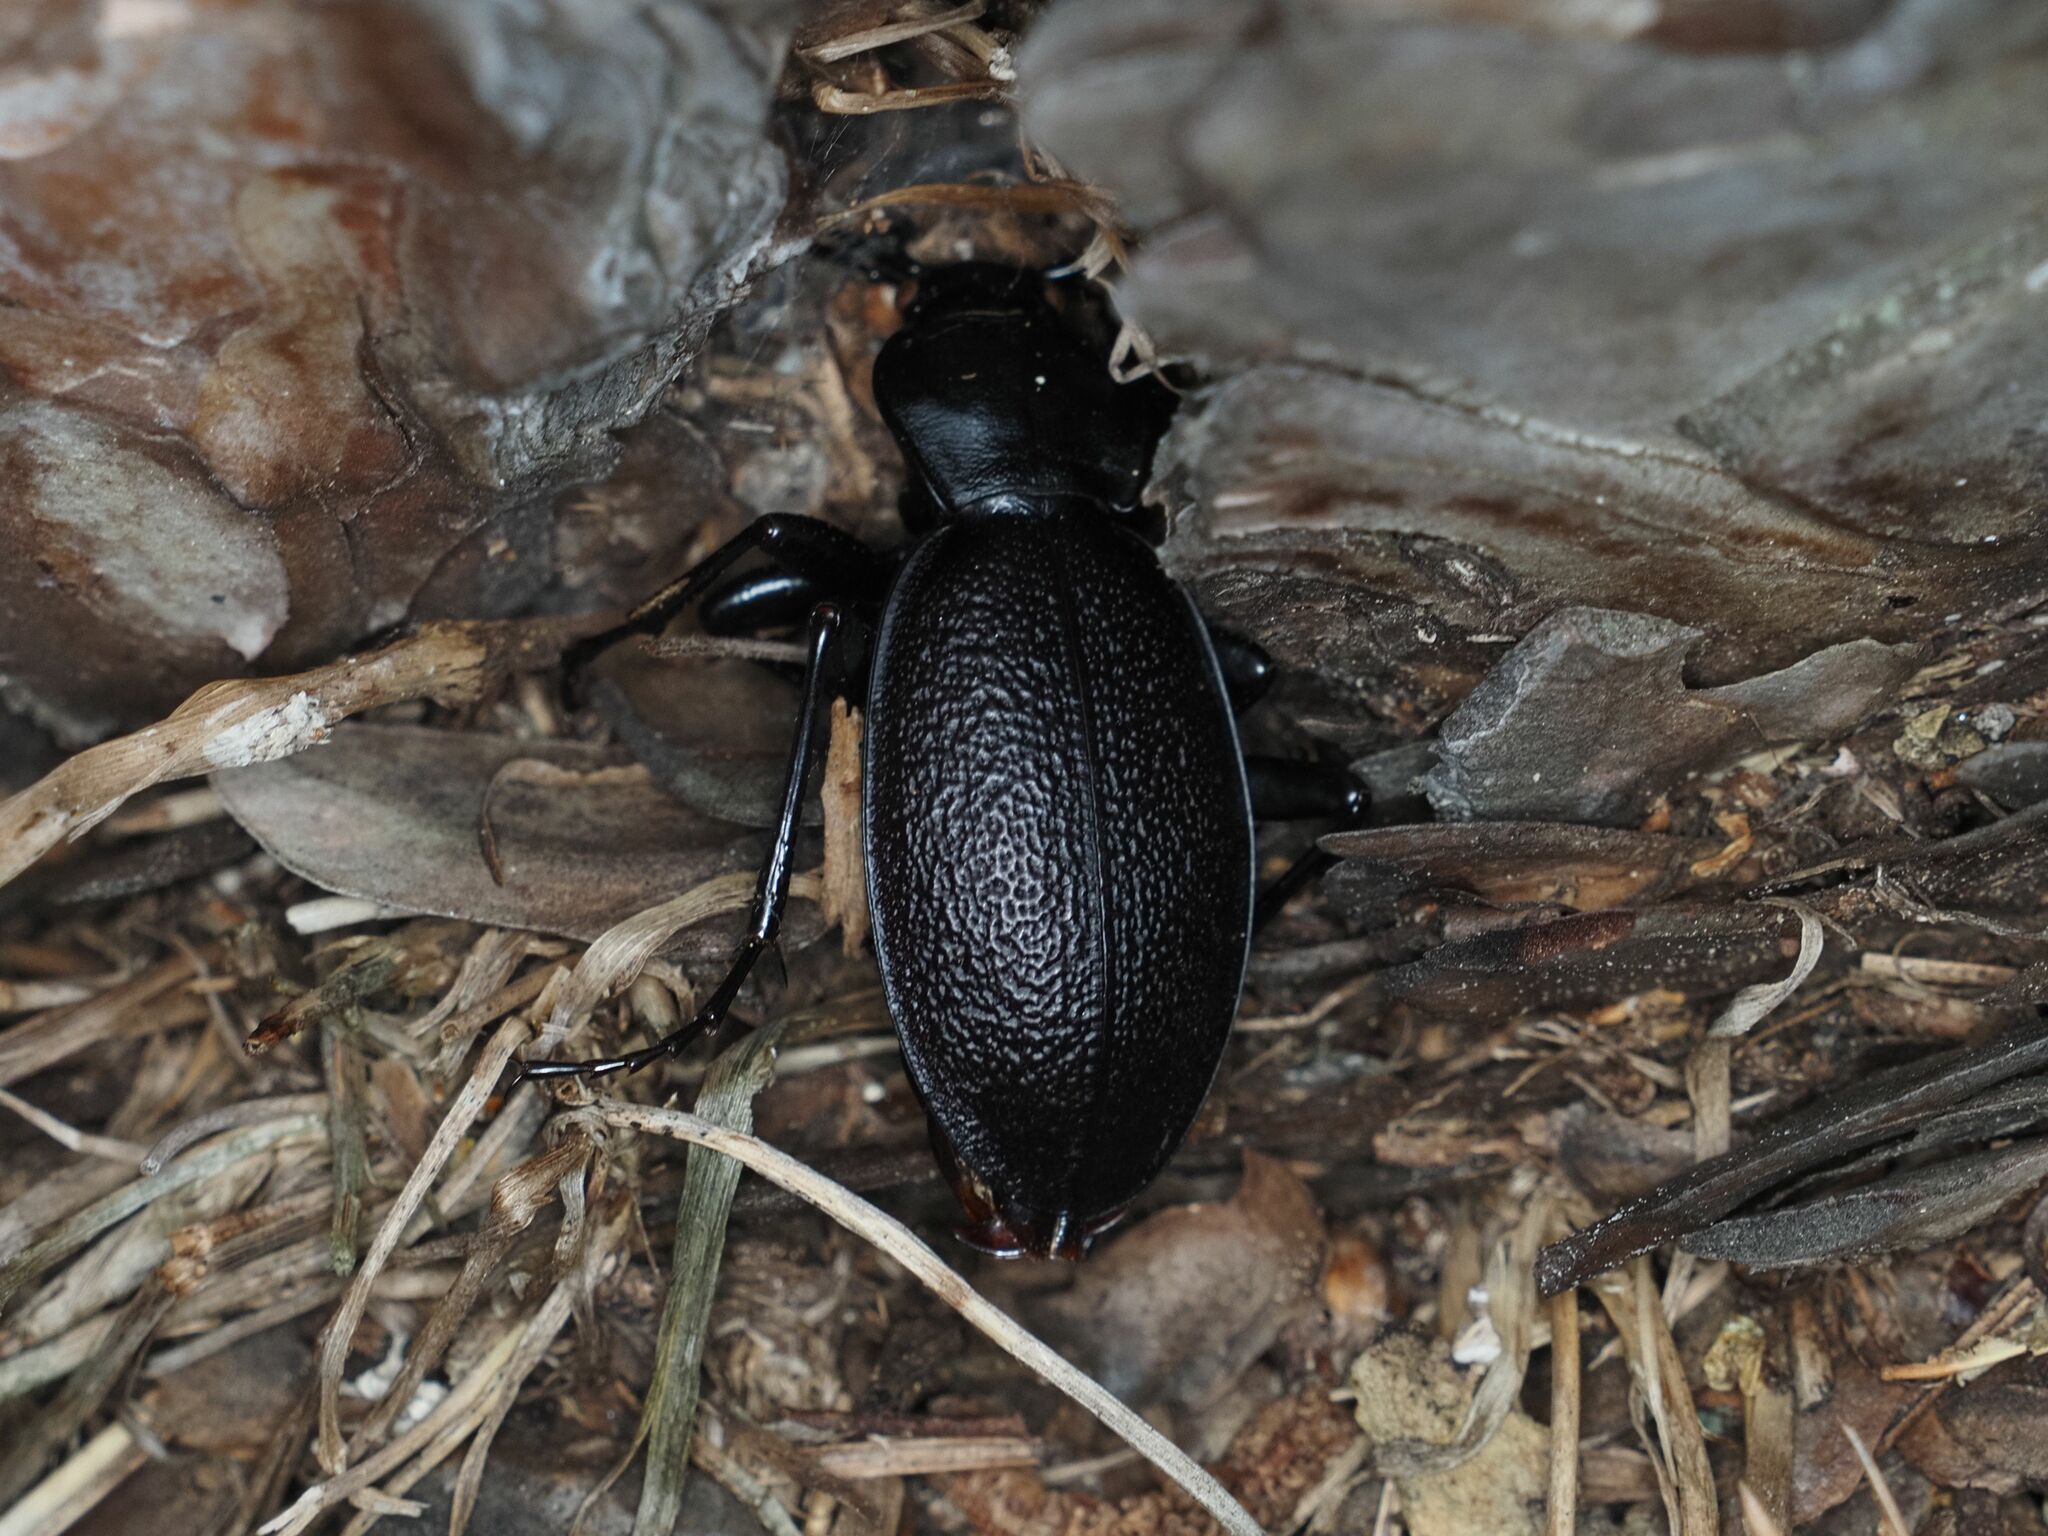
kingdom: Animalia
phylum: Arthropoda
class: Insecta
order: Coleoptera
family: Carabidae
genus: Carabus
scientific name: Carabus coriaceus
